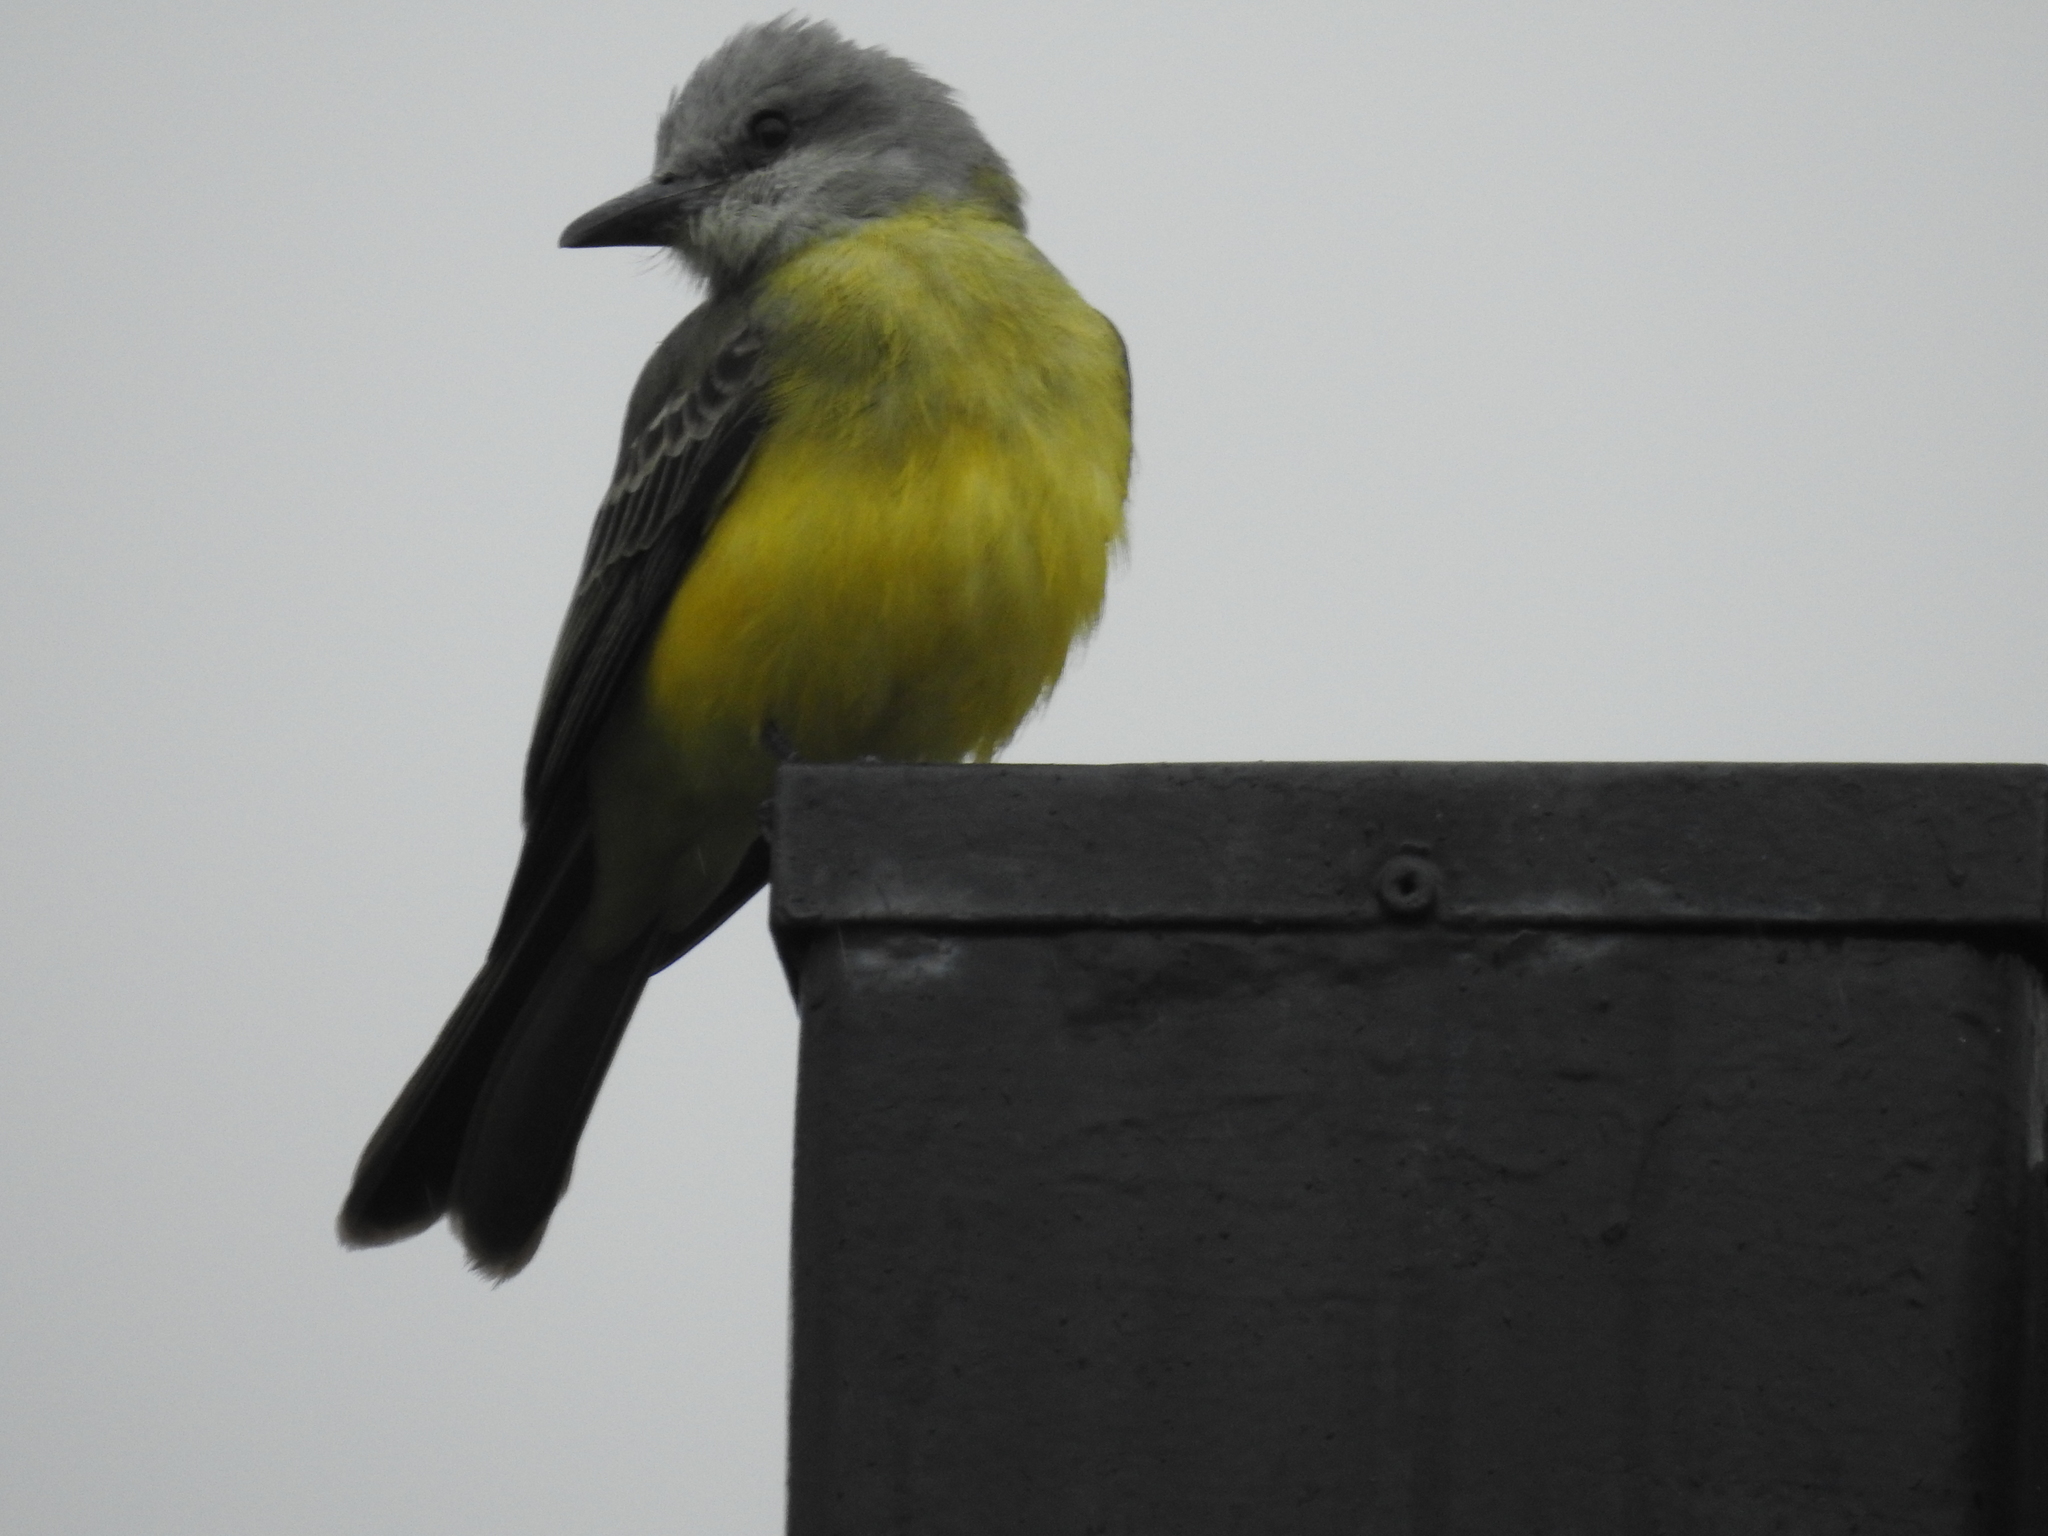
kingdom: Animalia
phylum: Chordata
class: Aves
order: Passeriformes
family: Tyrannidae
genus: Tyrannus
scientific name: Tyrannus melancholicus
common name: Tropical kingbird
